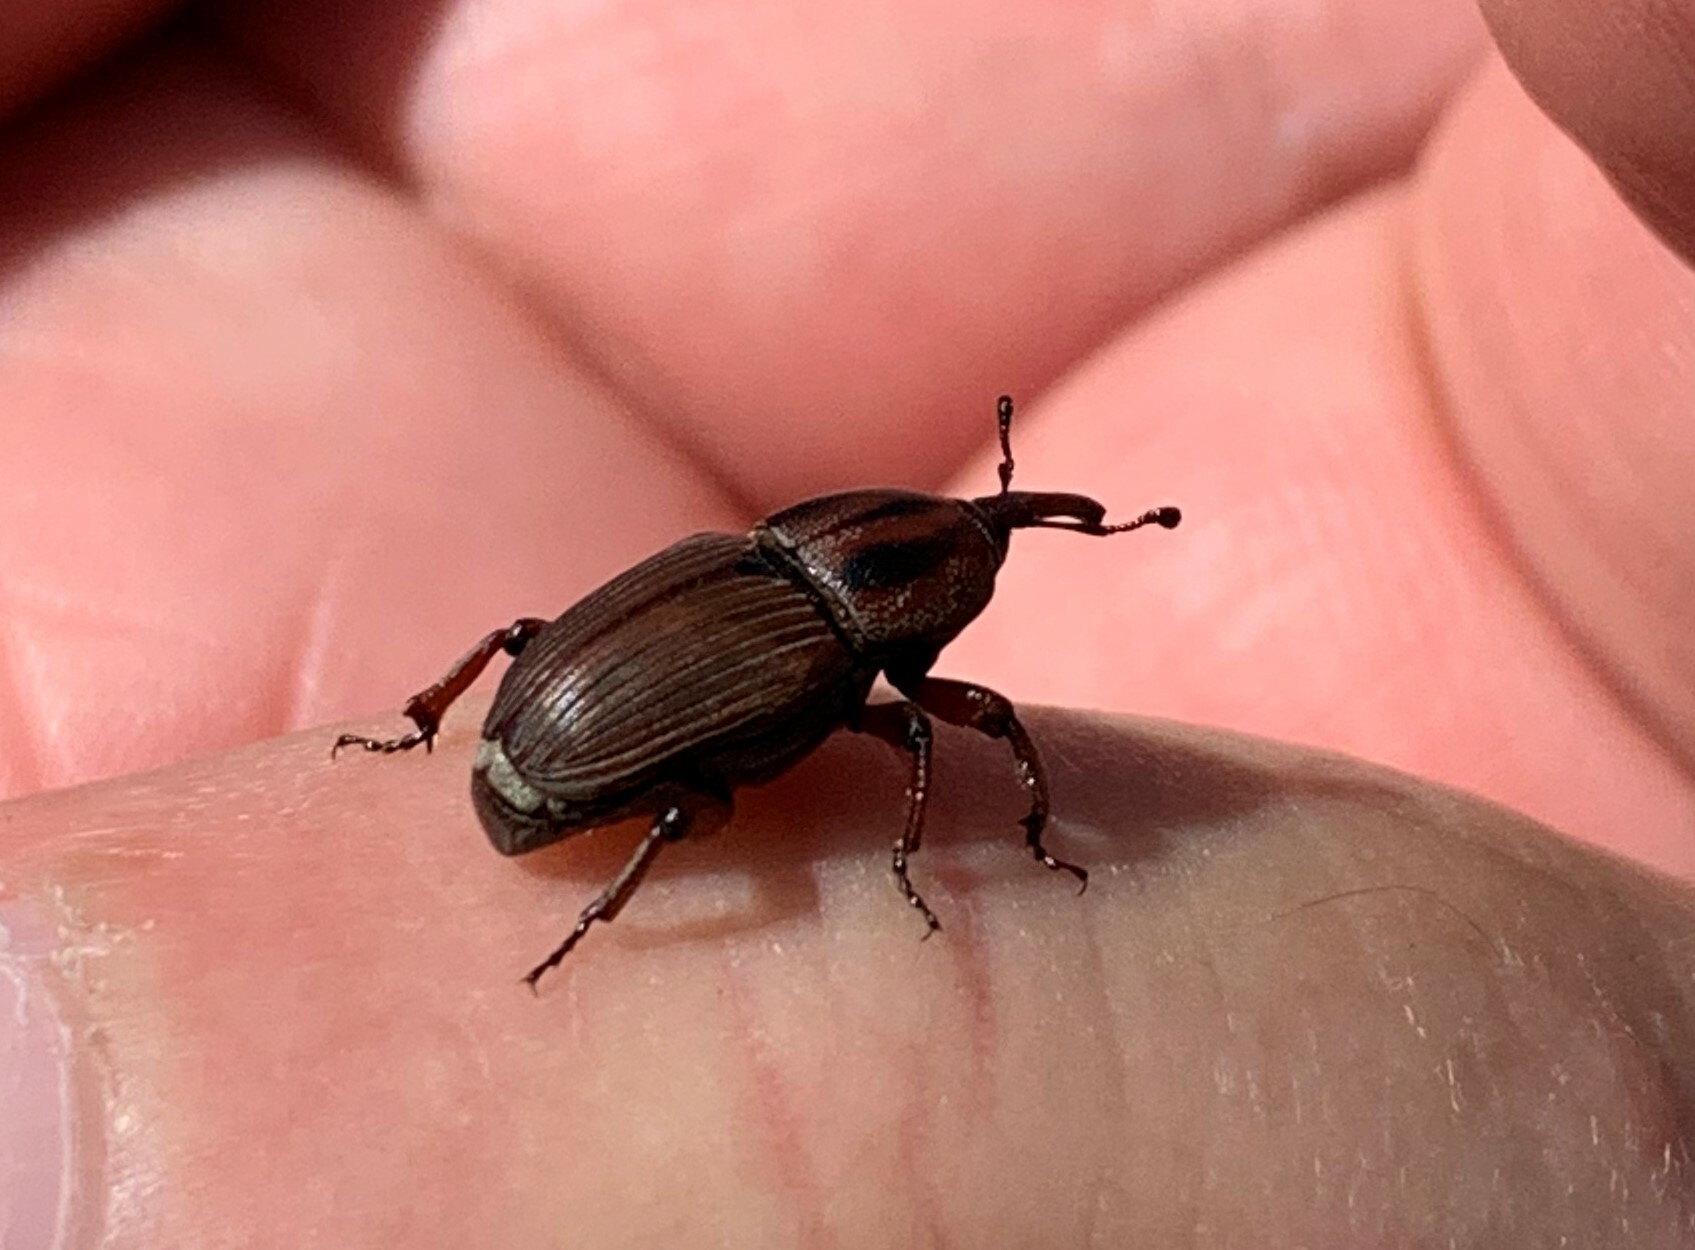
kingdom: Animalia
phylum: Arthropoda
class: Insecta
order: Coleoptera
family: Dryophthoridae
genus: Sphenophorus
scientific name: Sphenophorus
